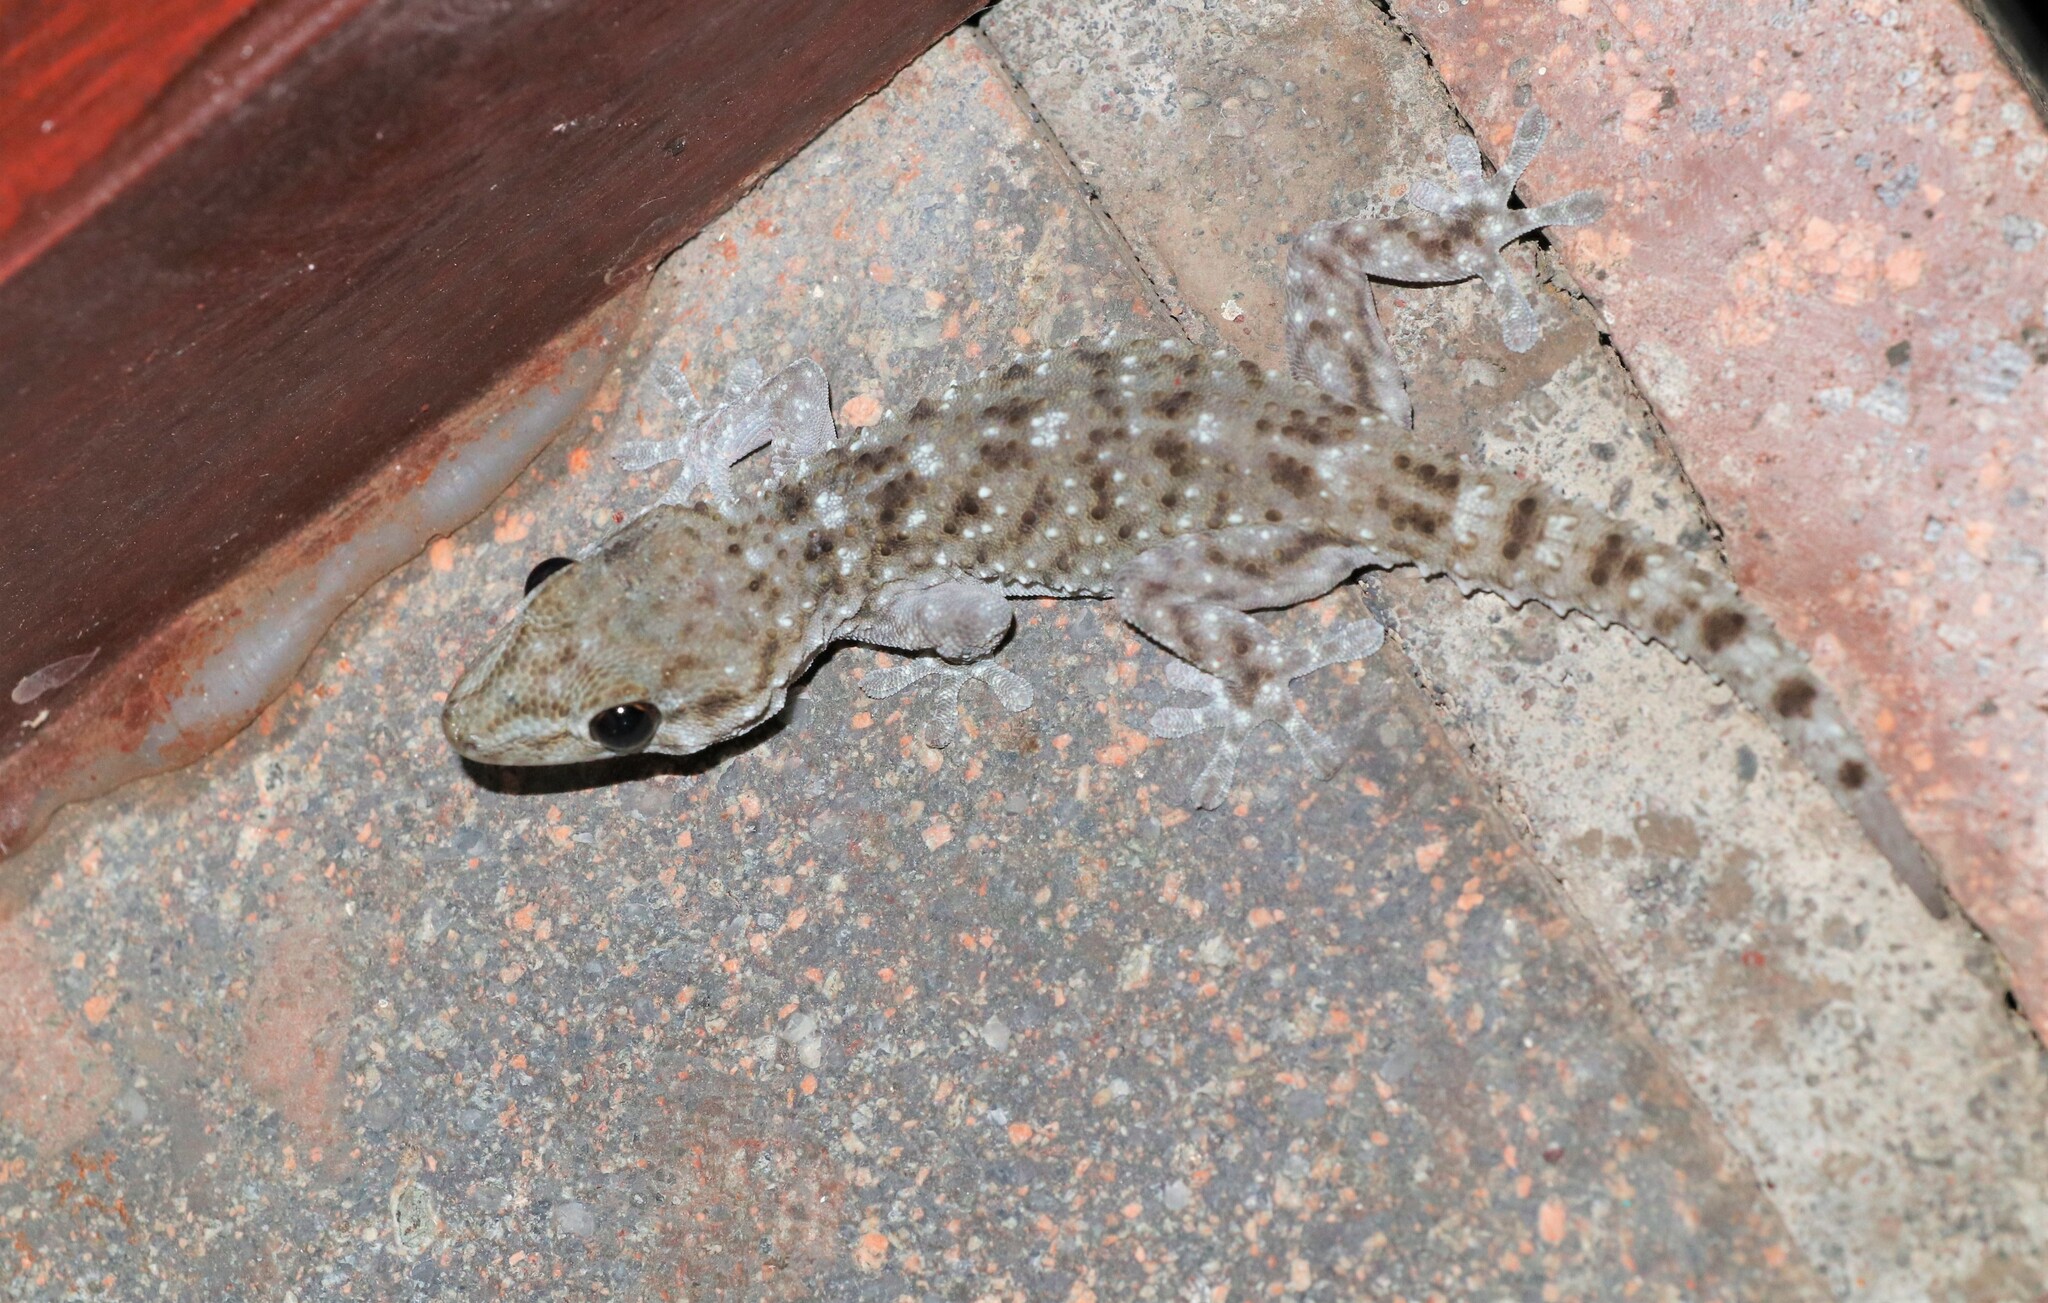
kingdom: Animalia
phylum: Chordata
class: Squamata
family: Phyllodactylidae
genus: Tarentola
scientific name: Tarentola gomerensis
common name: Gomero wall gecko
